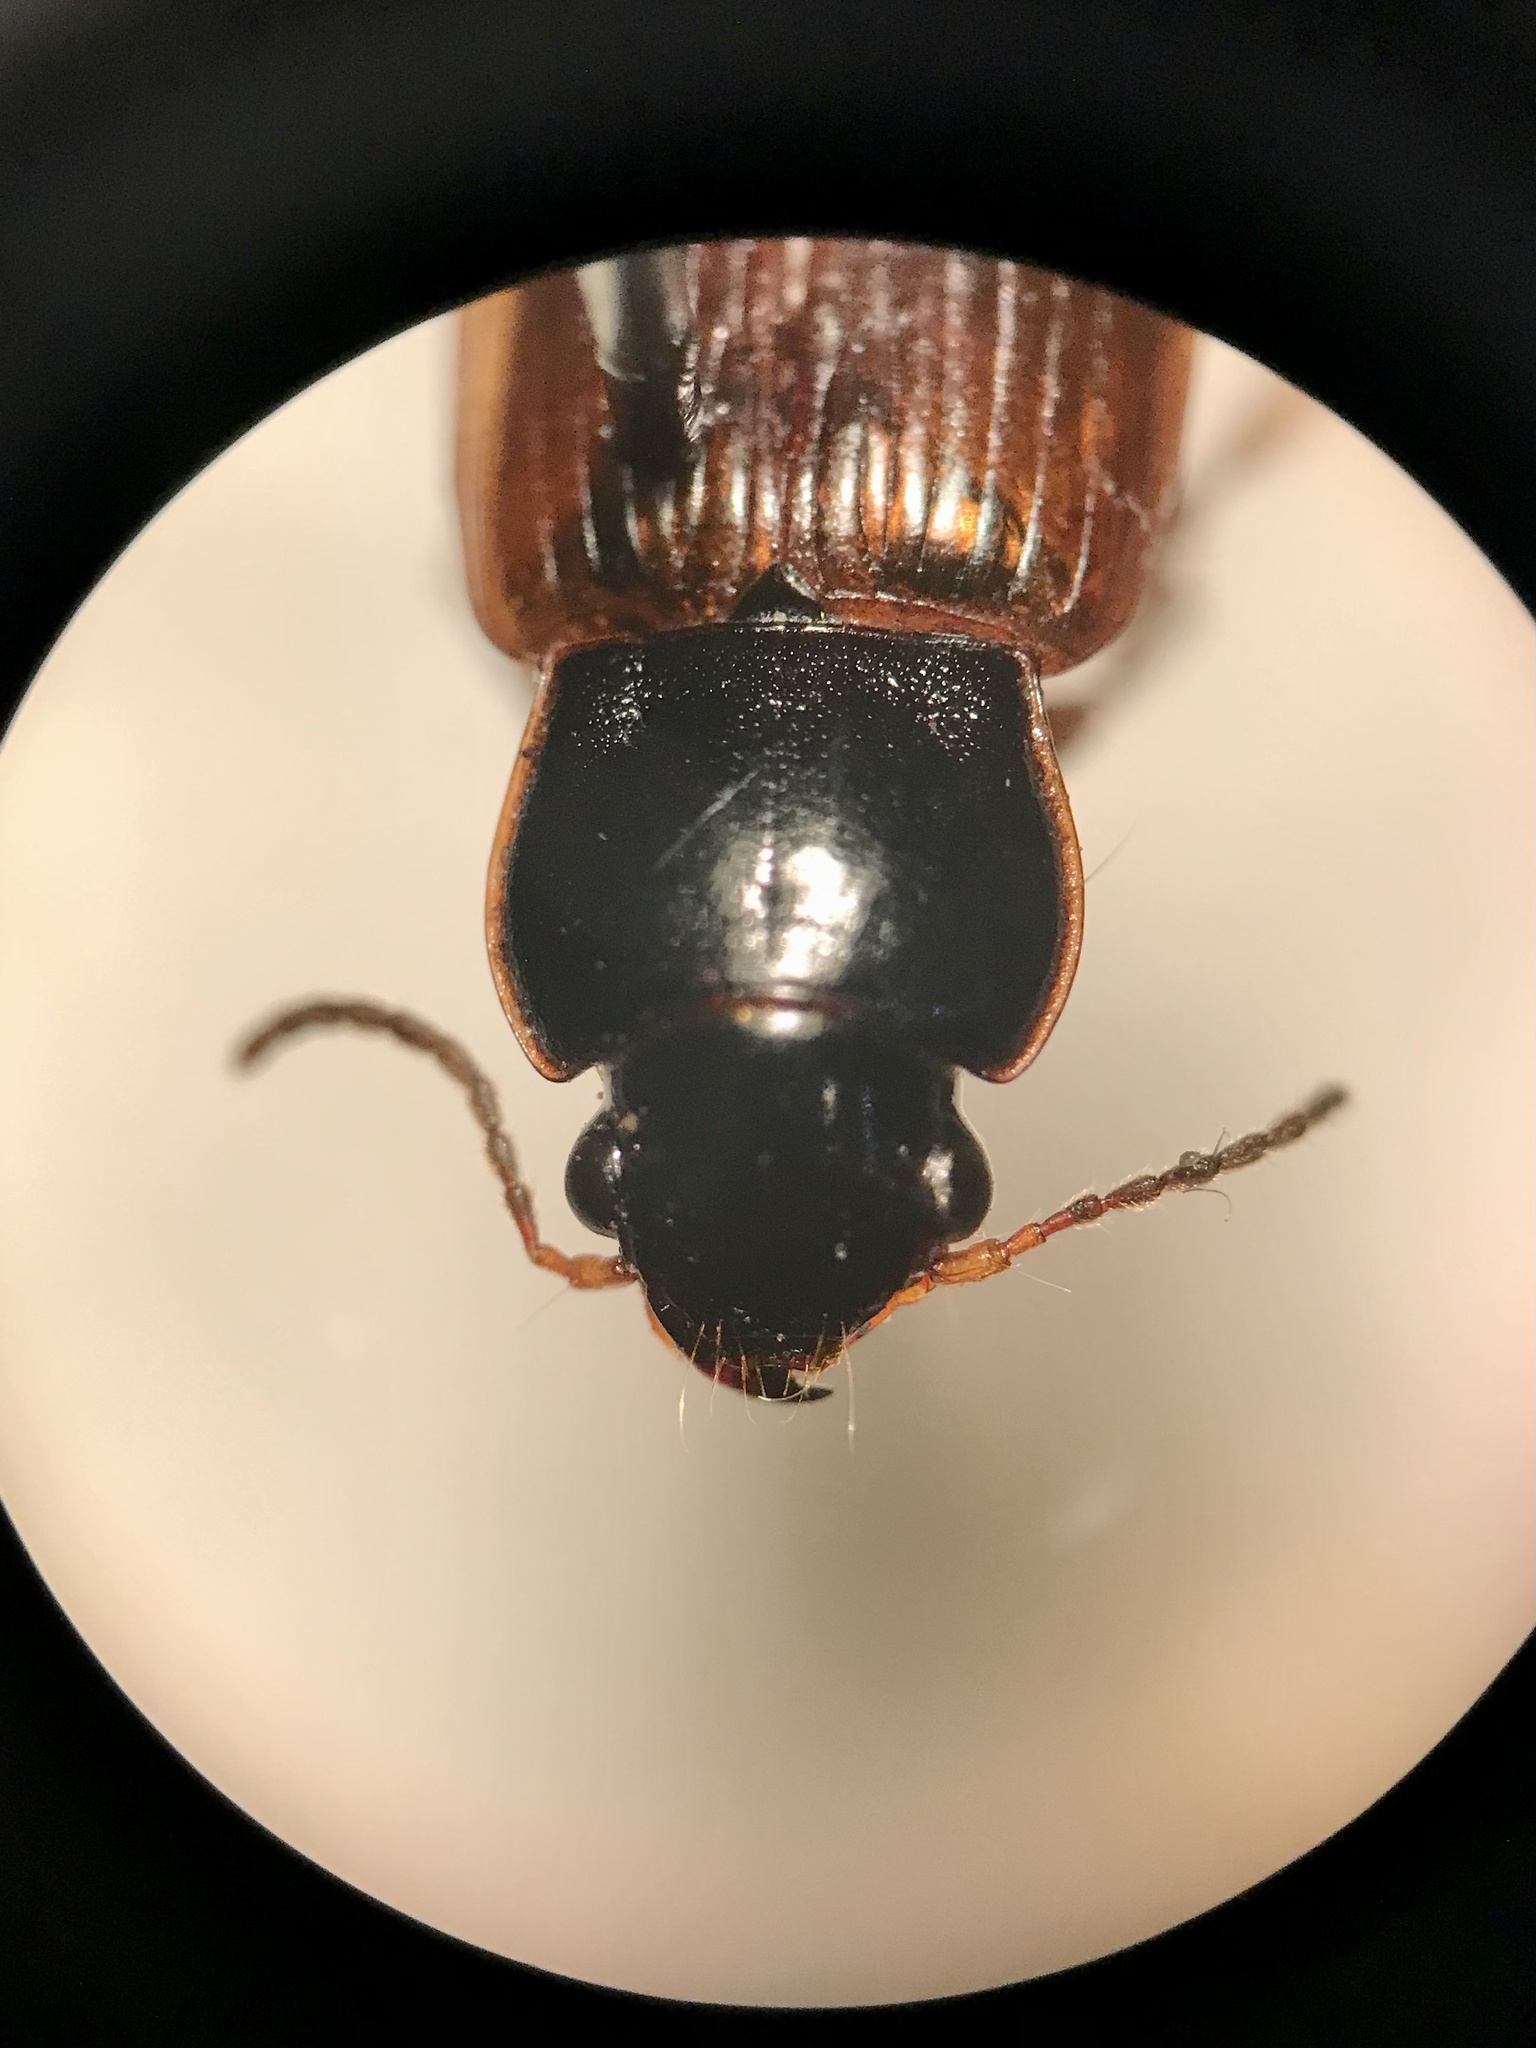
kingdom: Animalia
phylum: Arthropoda
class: Insecta
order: Coleoptera
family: Carabidae
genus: Anisodactylus
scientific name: Anisodactylus sanctaecrucis
